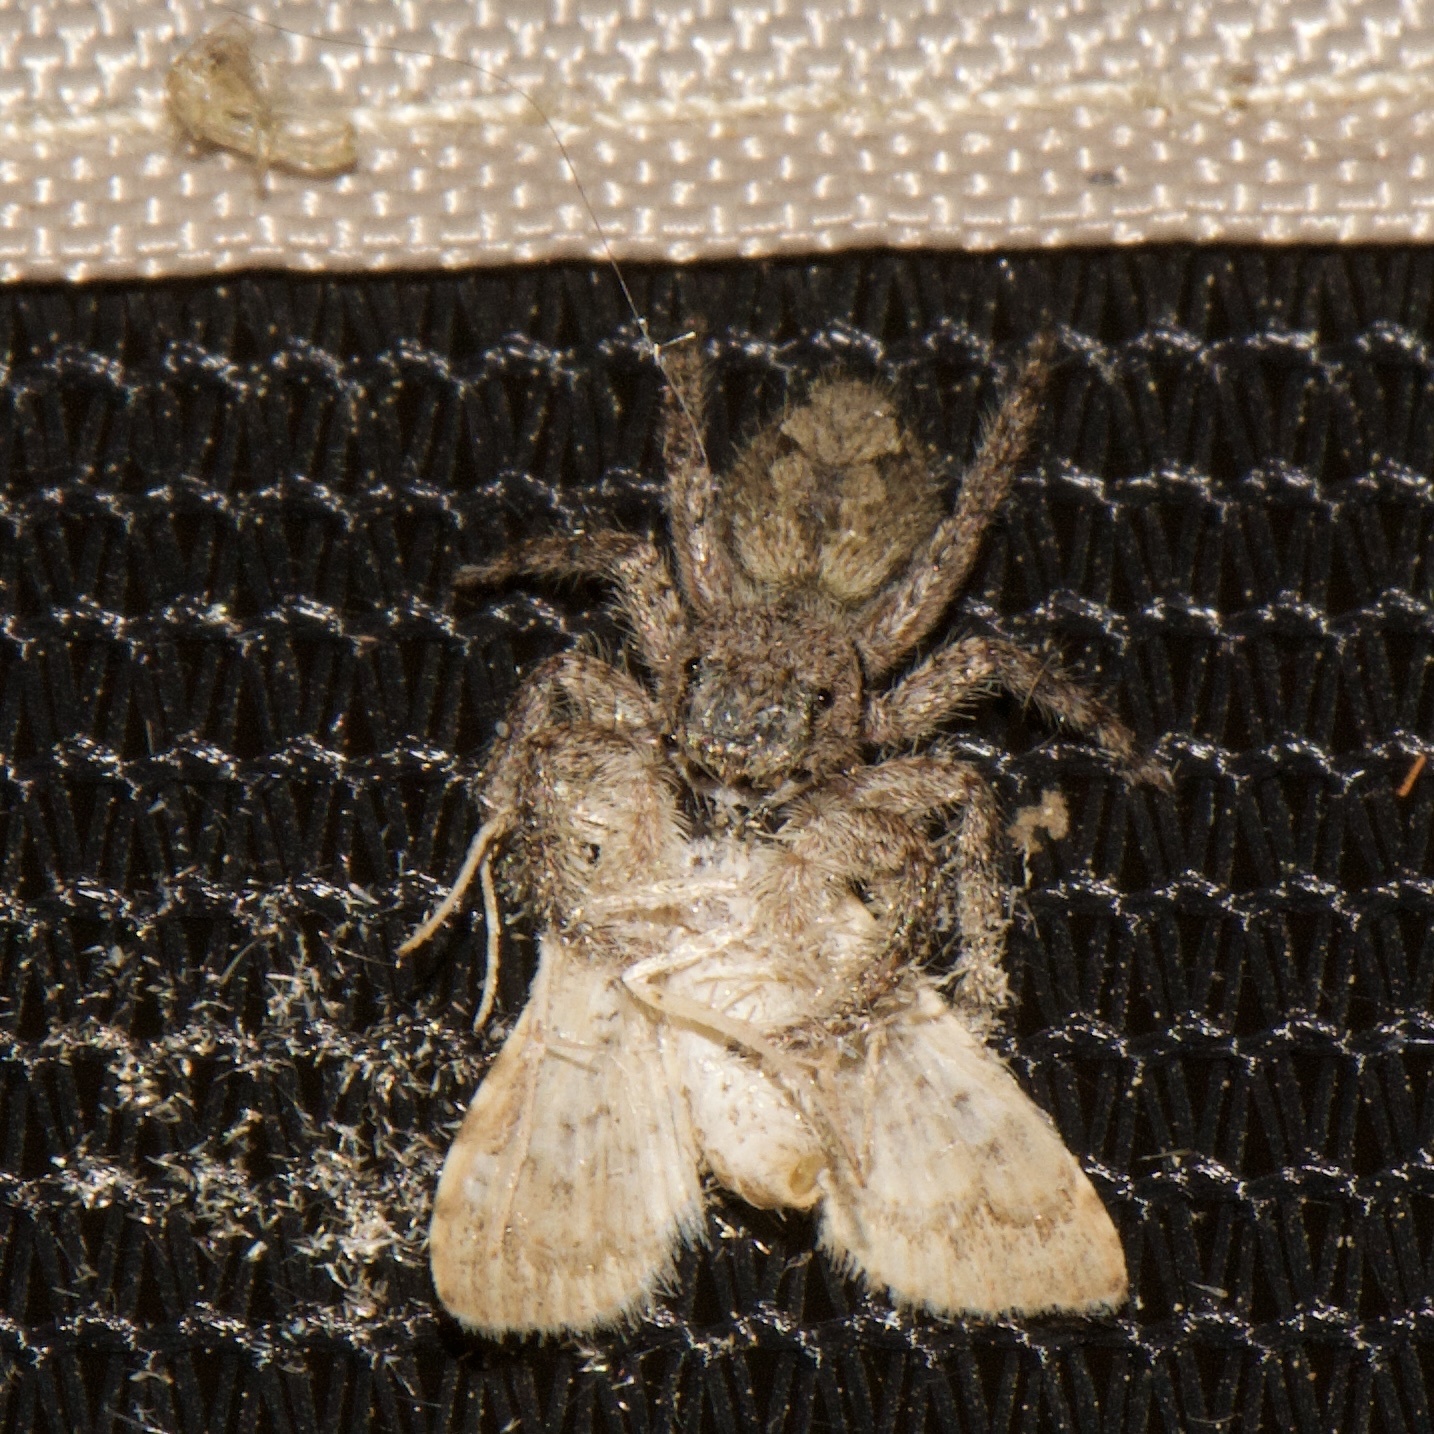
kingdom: Animalia
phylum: Arthropoda
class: Arachnida
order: Araneae
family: Salticidae
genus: Platycryptus
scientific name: Platycryptus undatus
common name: Tan jumping spider
